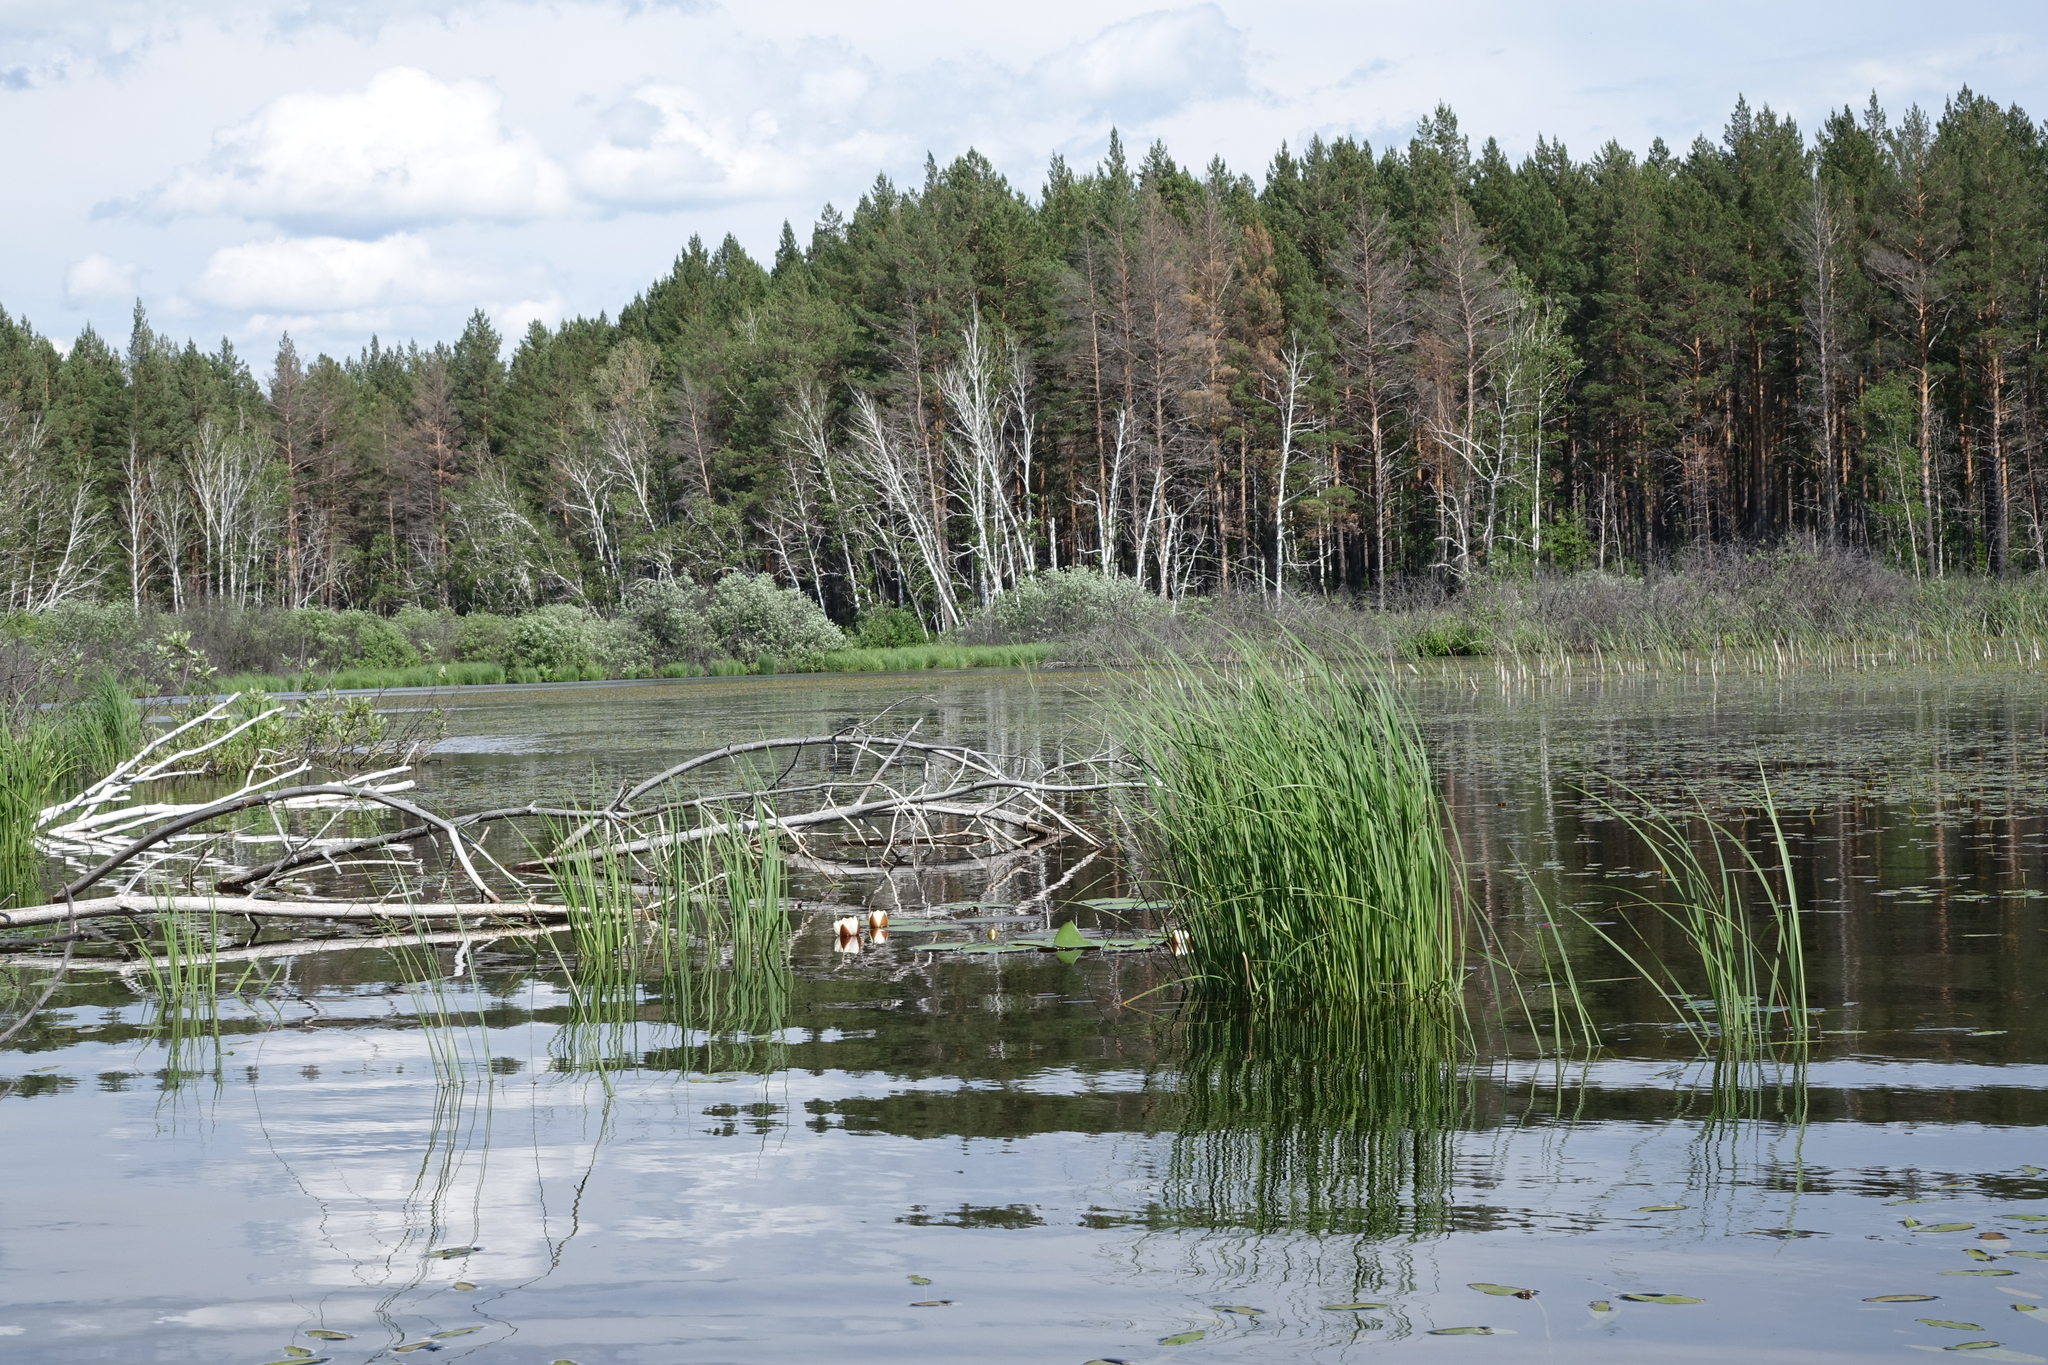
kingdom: Plantae
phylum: Tracheophyta
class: Pinopsida
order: Pinales
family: Pinaceae
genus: Pinus
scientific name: Pinus sylvestris
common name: Scots pine
